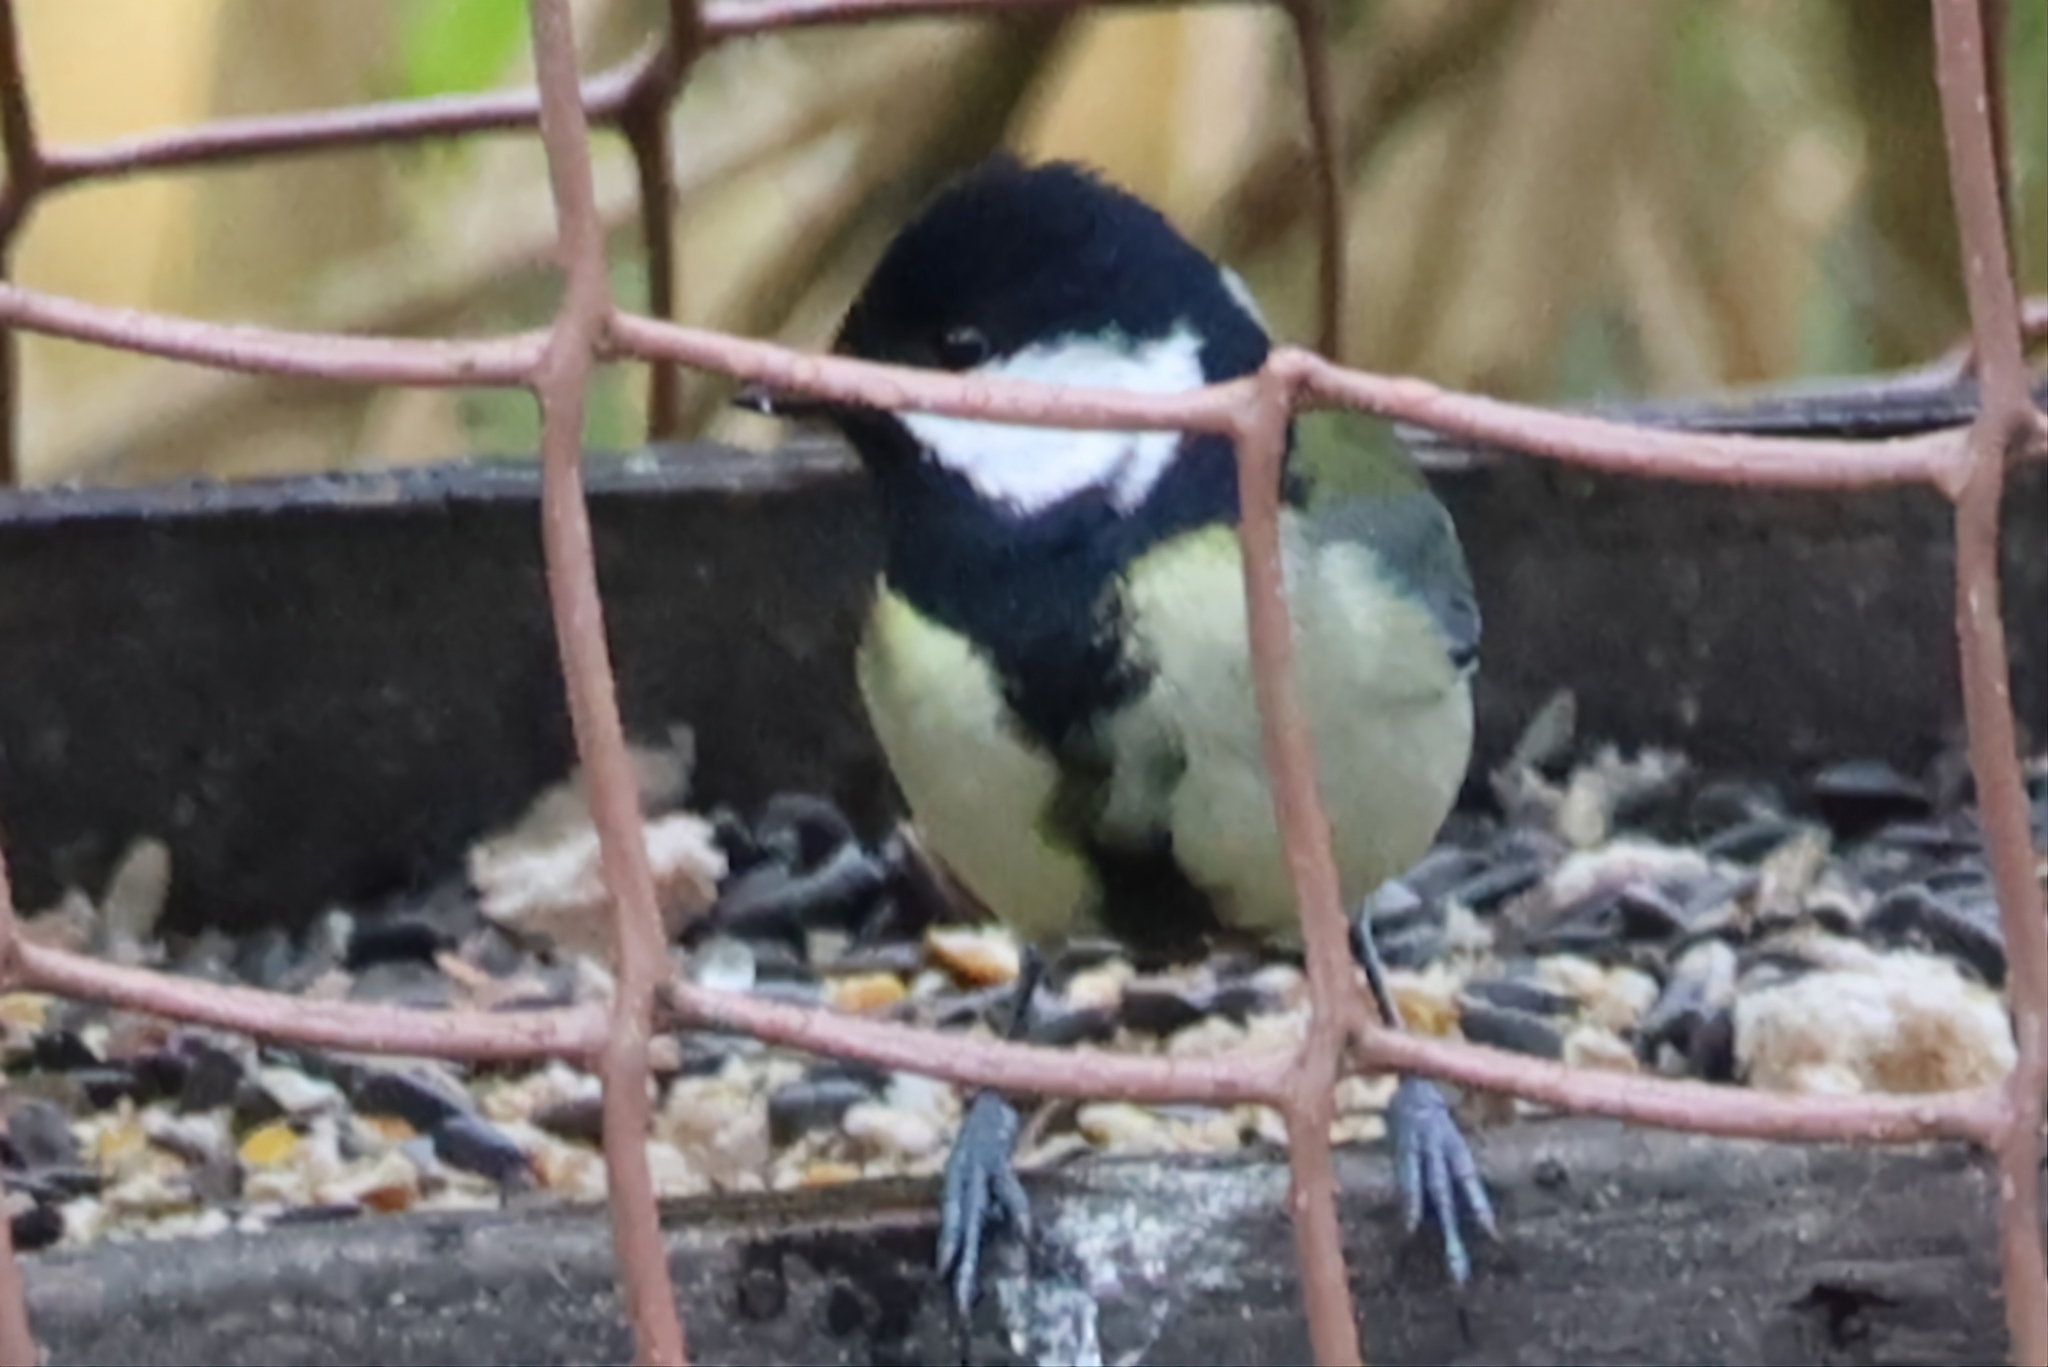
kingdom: Animalia
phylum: Chordata
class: Aves
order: Passeriformes
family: Paridae
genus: Parus
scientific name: Parus major
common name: Great tit
